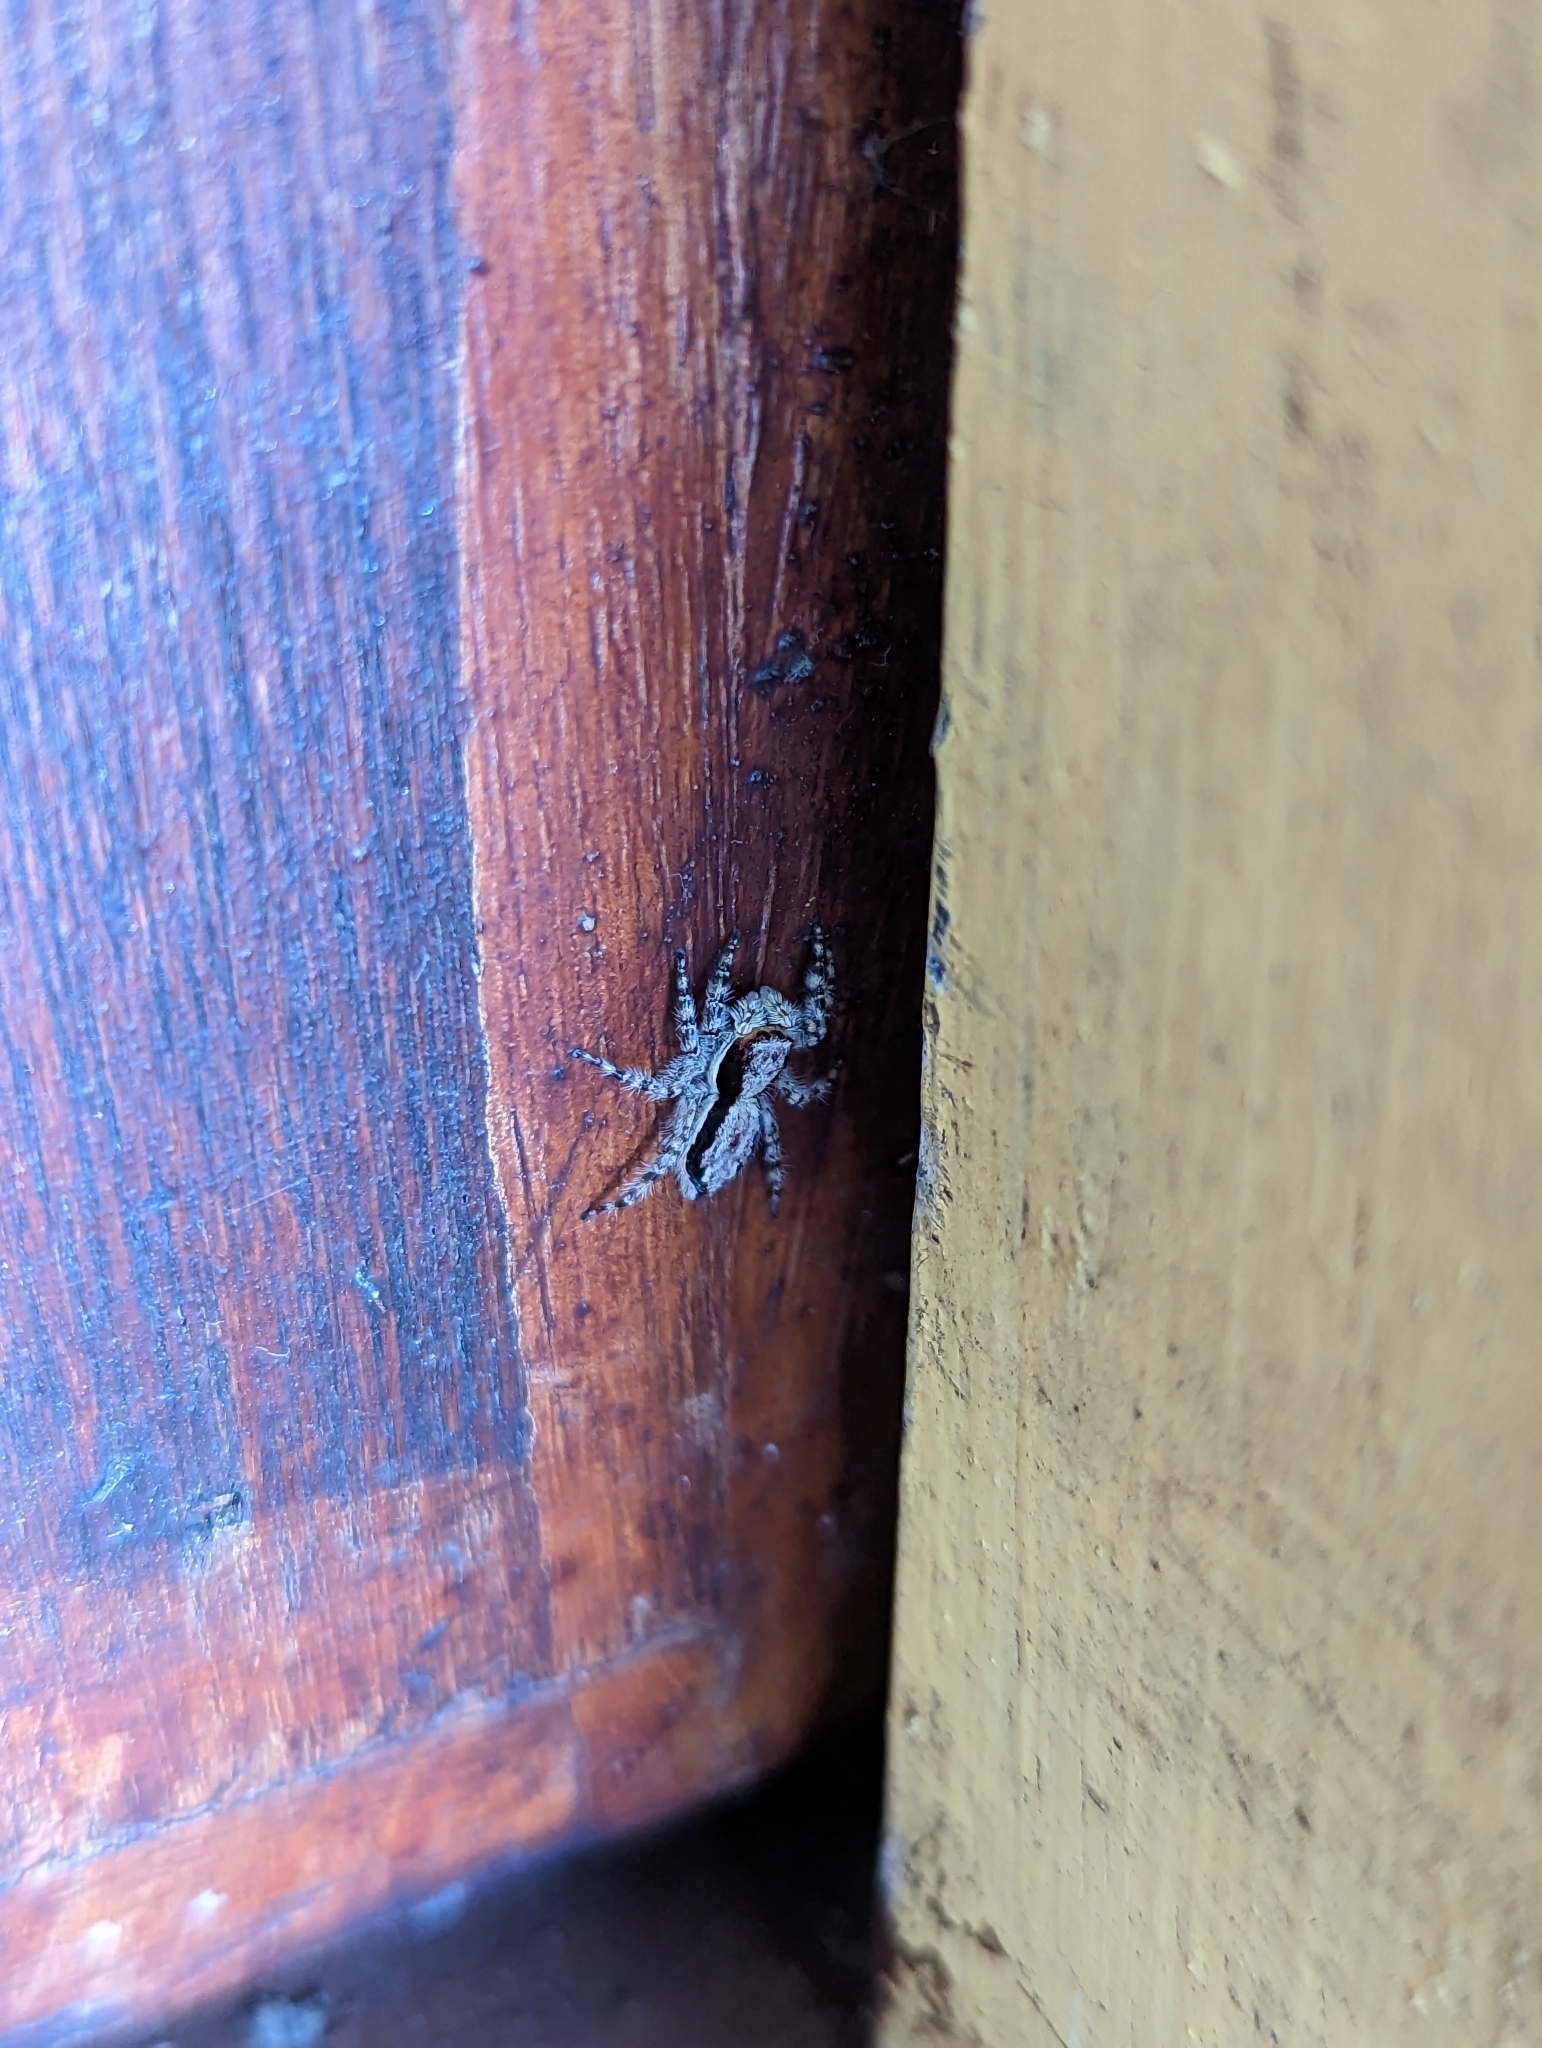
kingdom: Animalia
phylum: Arthropoda
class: Arachnida
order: Araneae
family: Salticidae
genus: Menemerus
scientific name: Menemerus bivittatus
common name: Gray wall jumper
